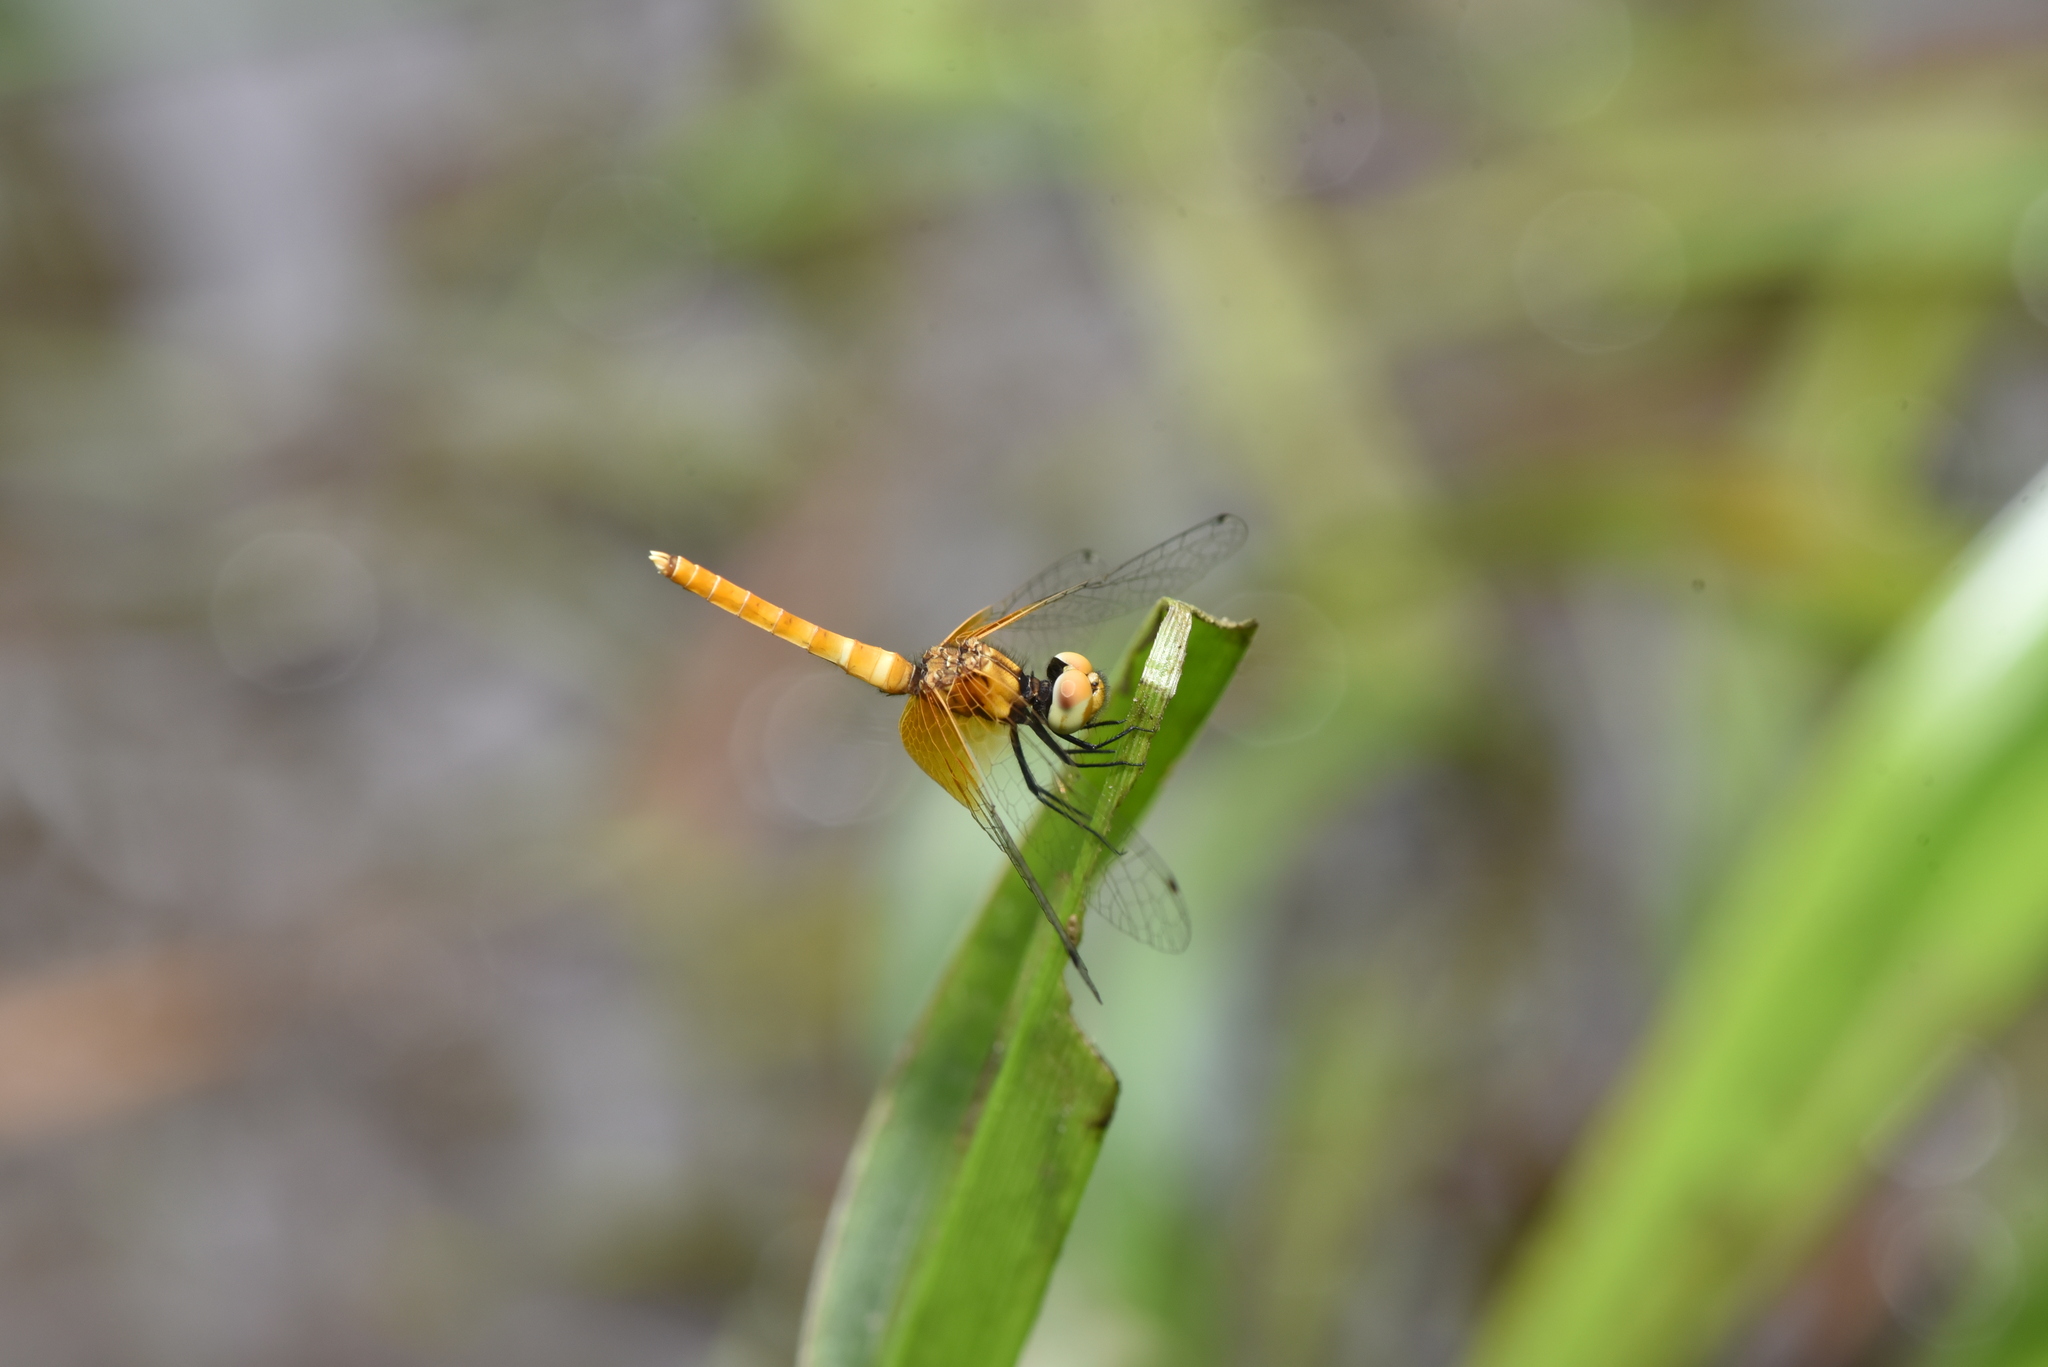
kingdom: Animalia
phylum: Arthropoda
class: Insecta
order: Odonata
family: Libellulidae
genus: Nannophya
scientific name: Nannophya pygmaea
